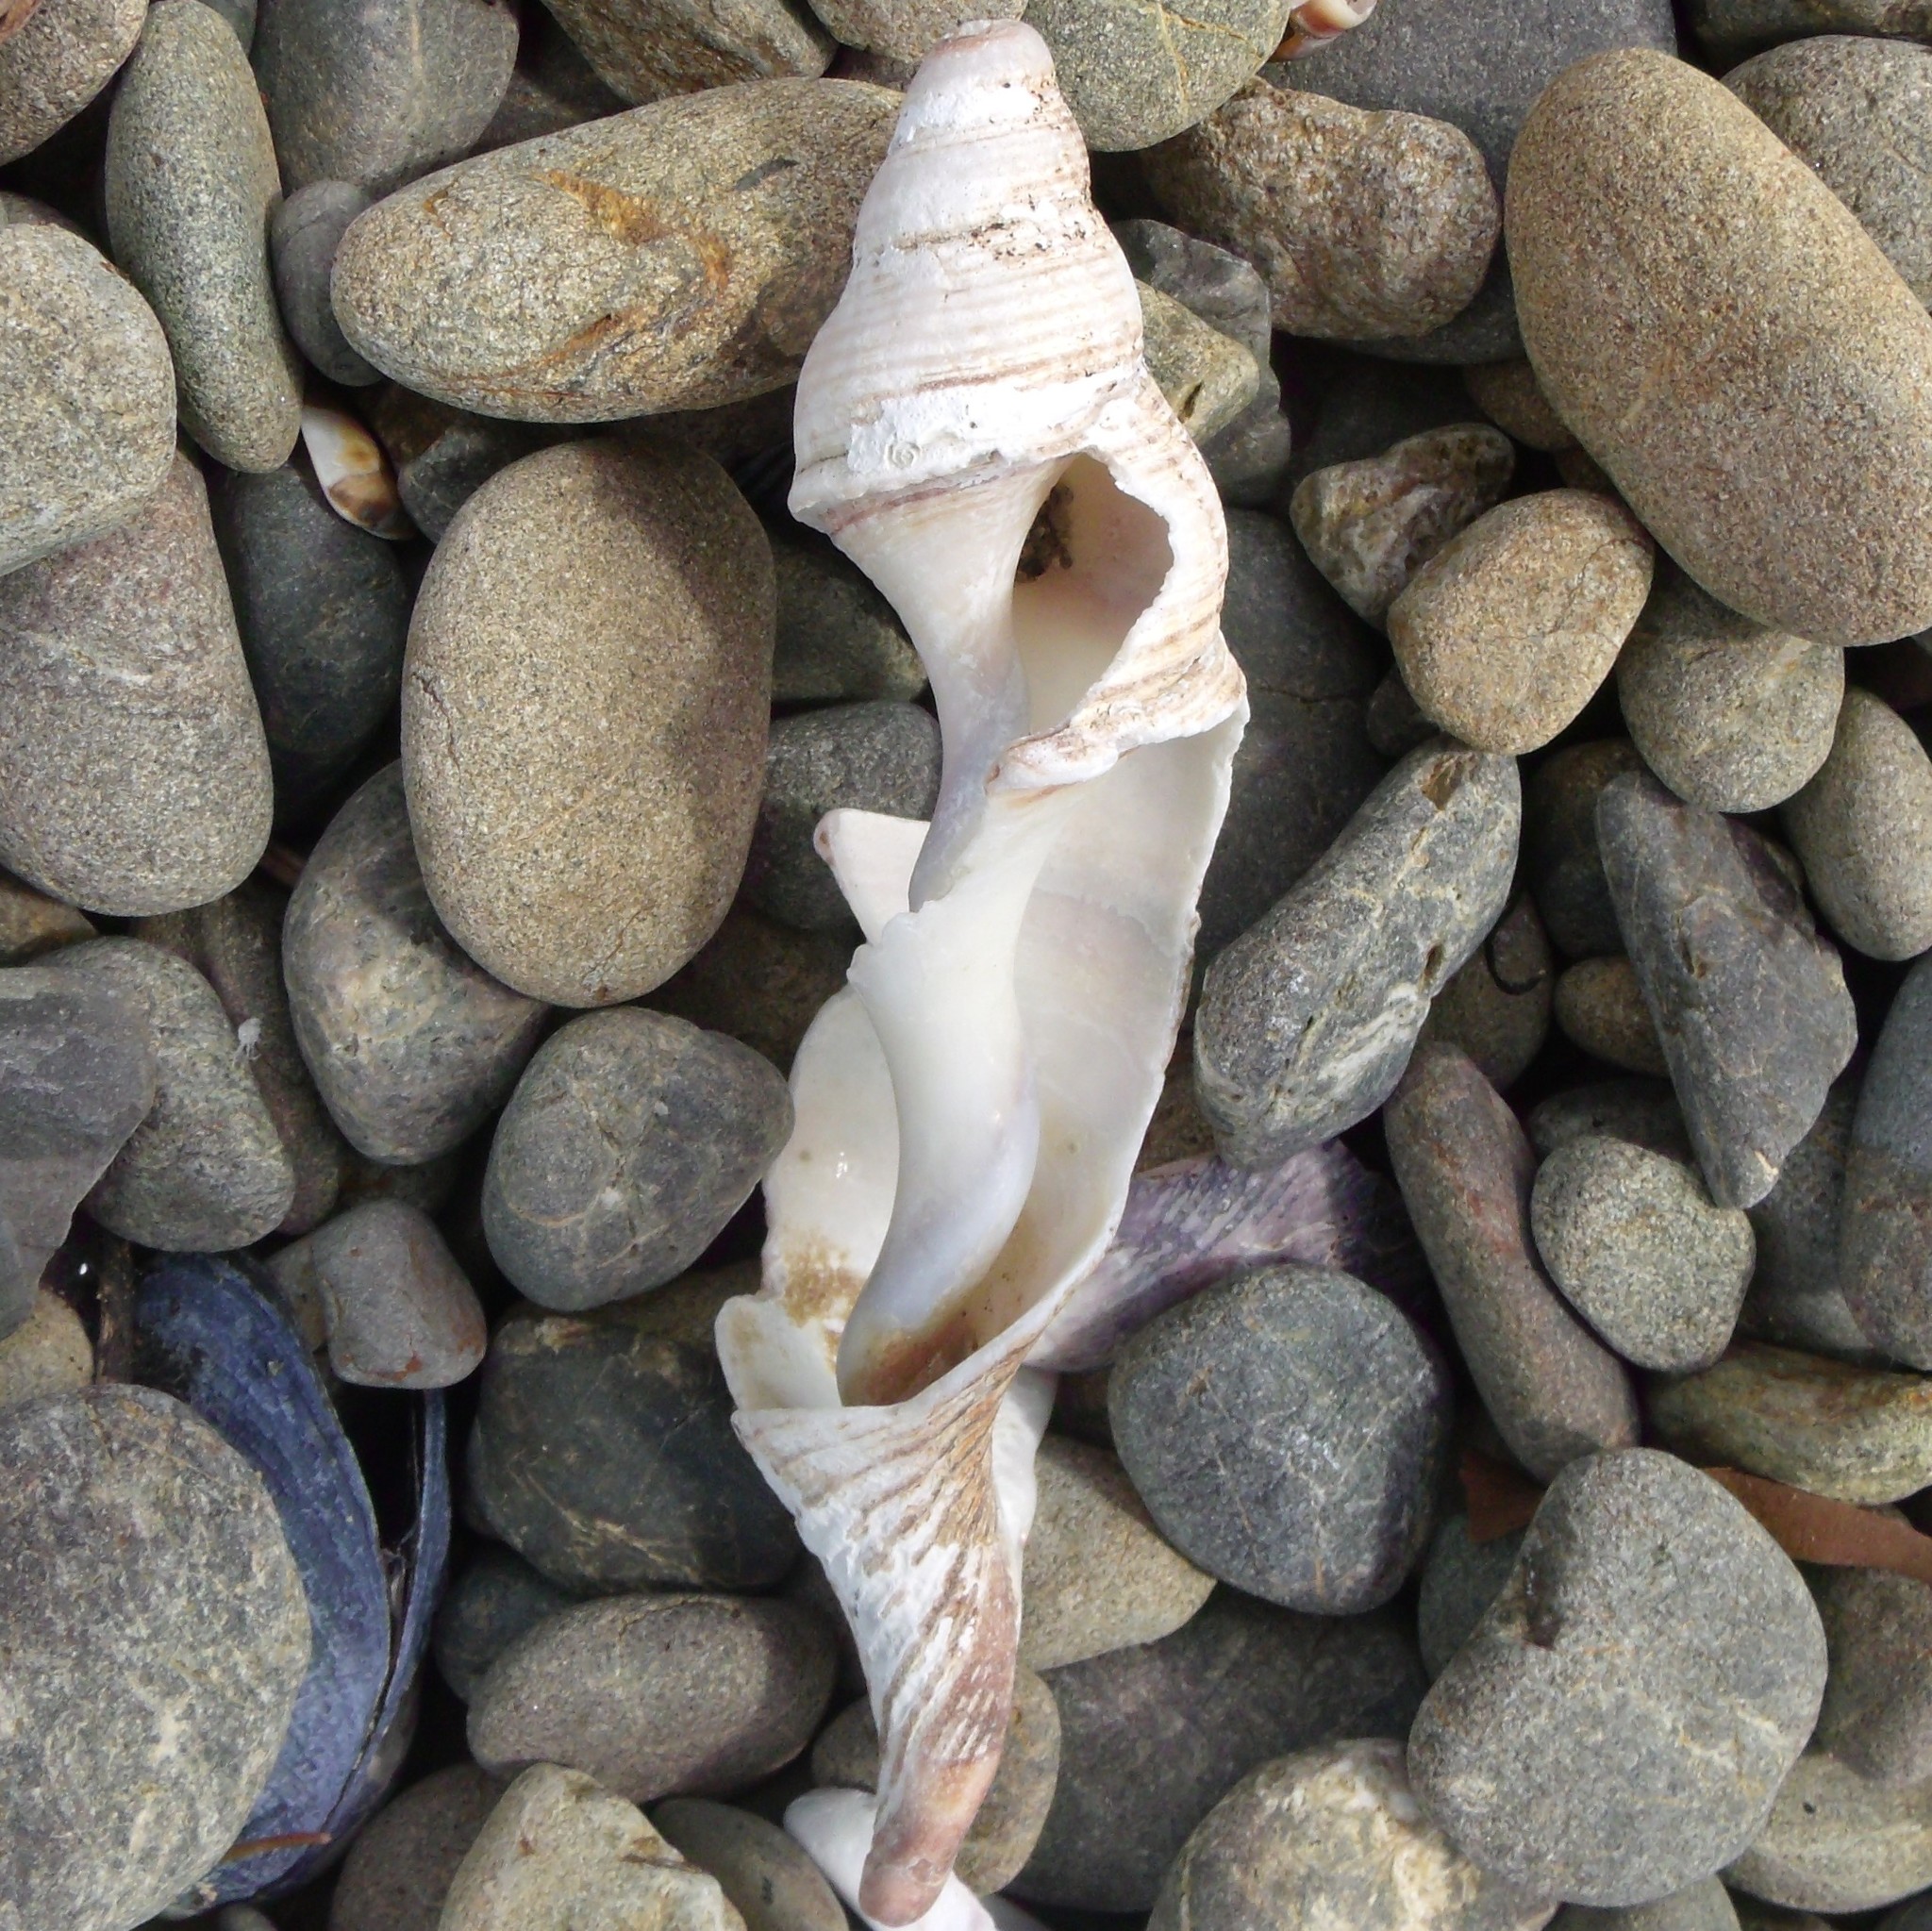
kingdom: Animalia
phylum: Mollusca
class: Gastropoda
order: Neogastropoda
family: Austrosiphonidae
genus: Penion
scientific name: Penion sulcatus
